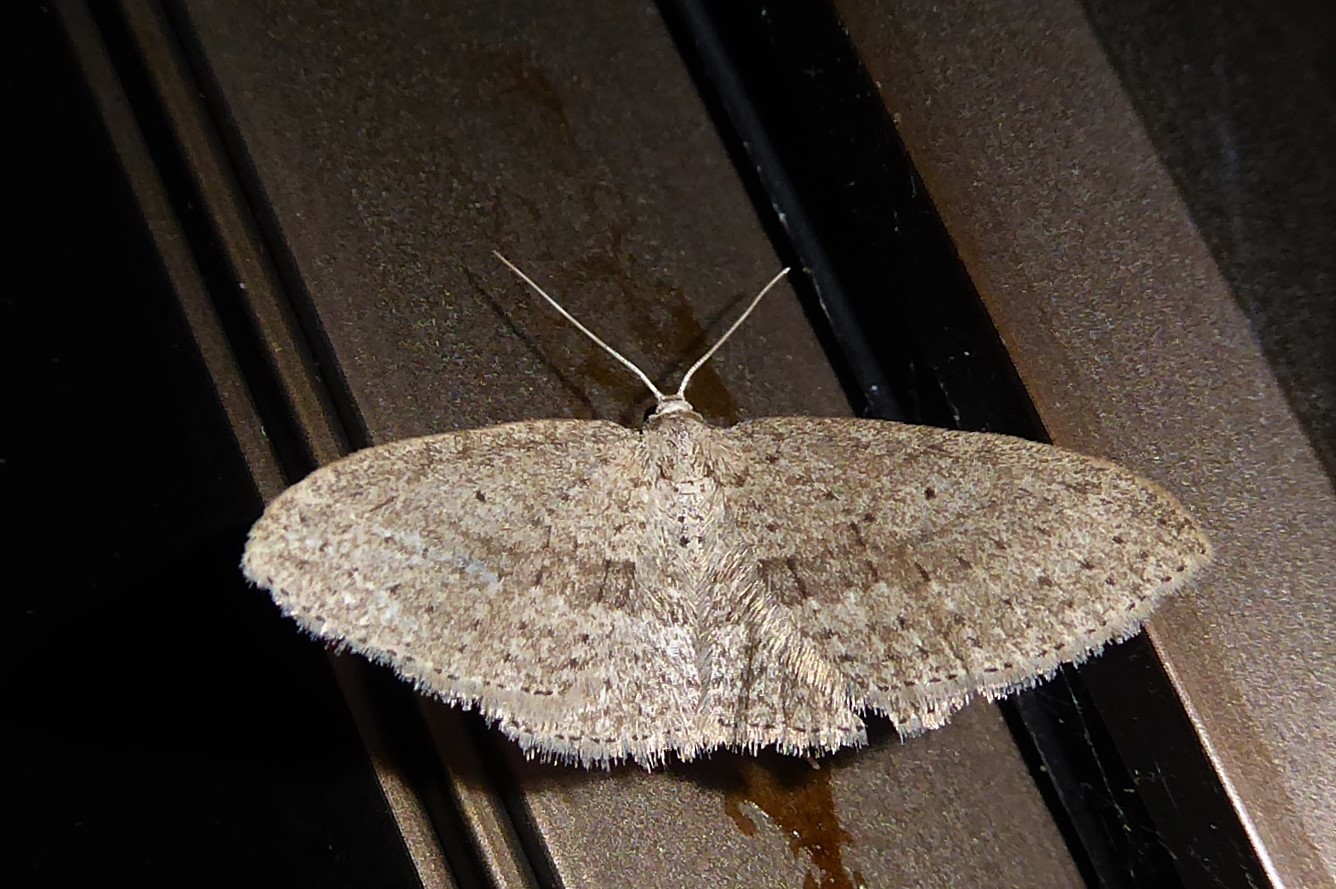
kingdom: Animalia
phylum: Arthropoda
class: Insecta
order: Lepidoptera
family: Geometridae
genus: Poecilasthena
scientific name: Poecilasthena schistaria
